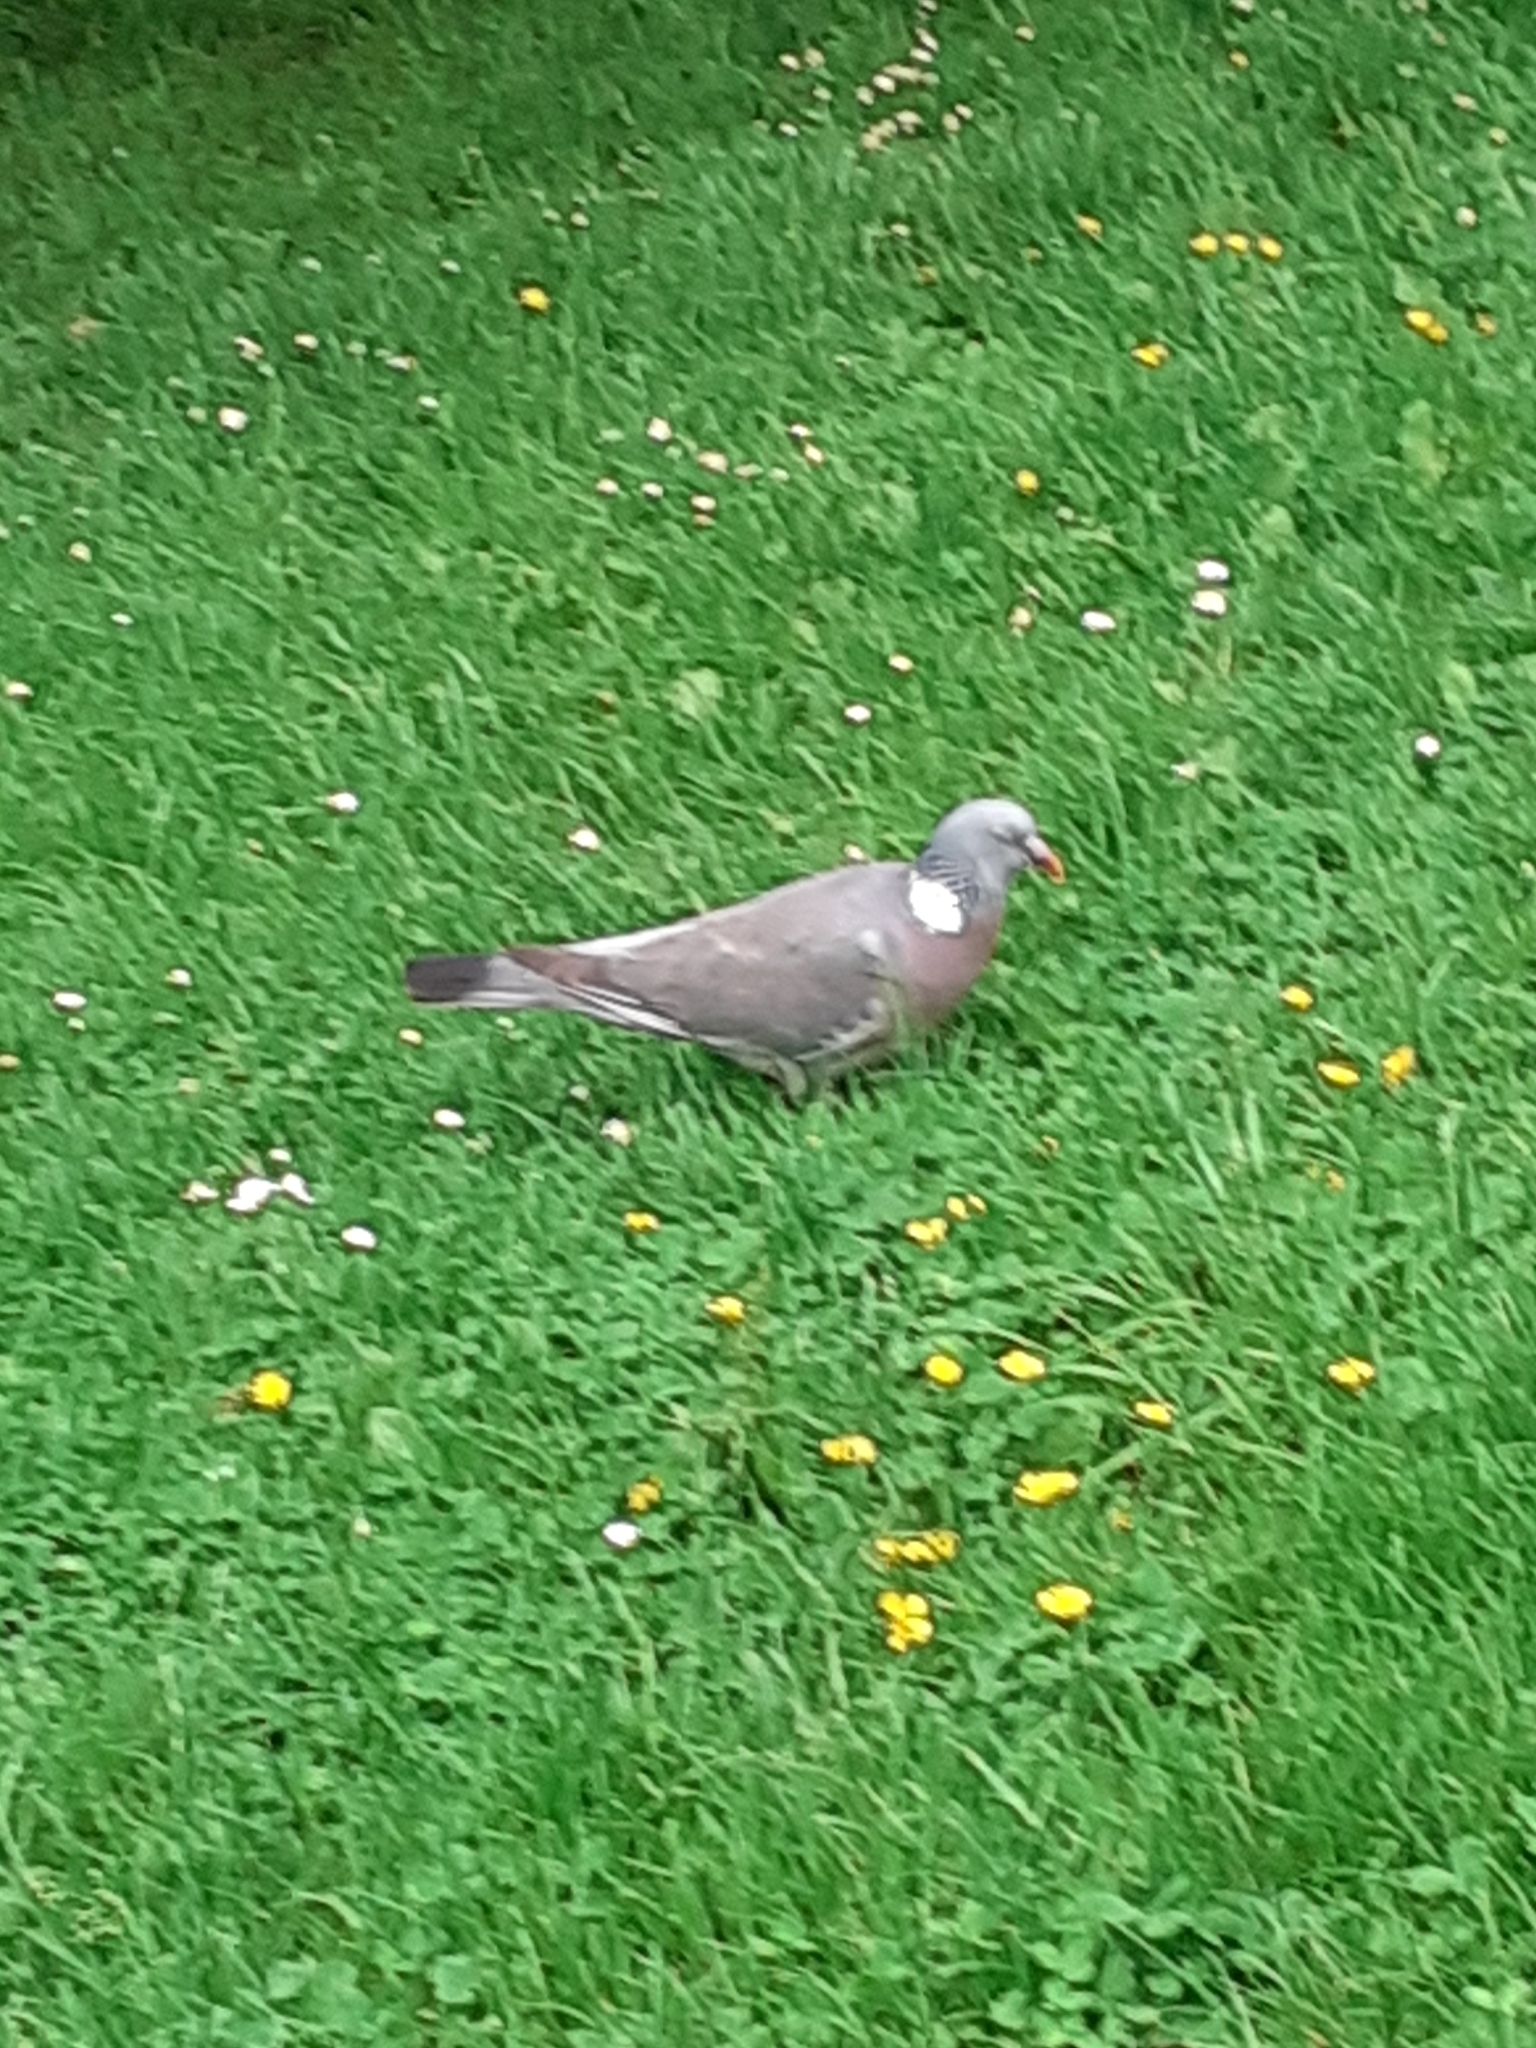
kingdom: Animalia
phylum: Chordata
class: Aves
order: Columbiformes
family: Columbidae
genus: Columba
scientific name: Columba palumbus
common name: Common wood pigeon
